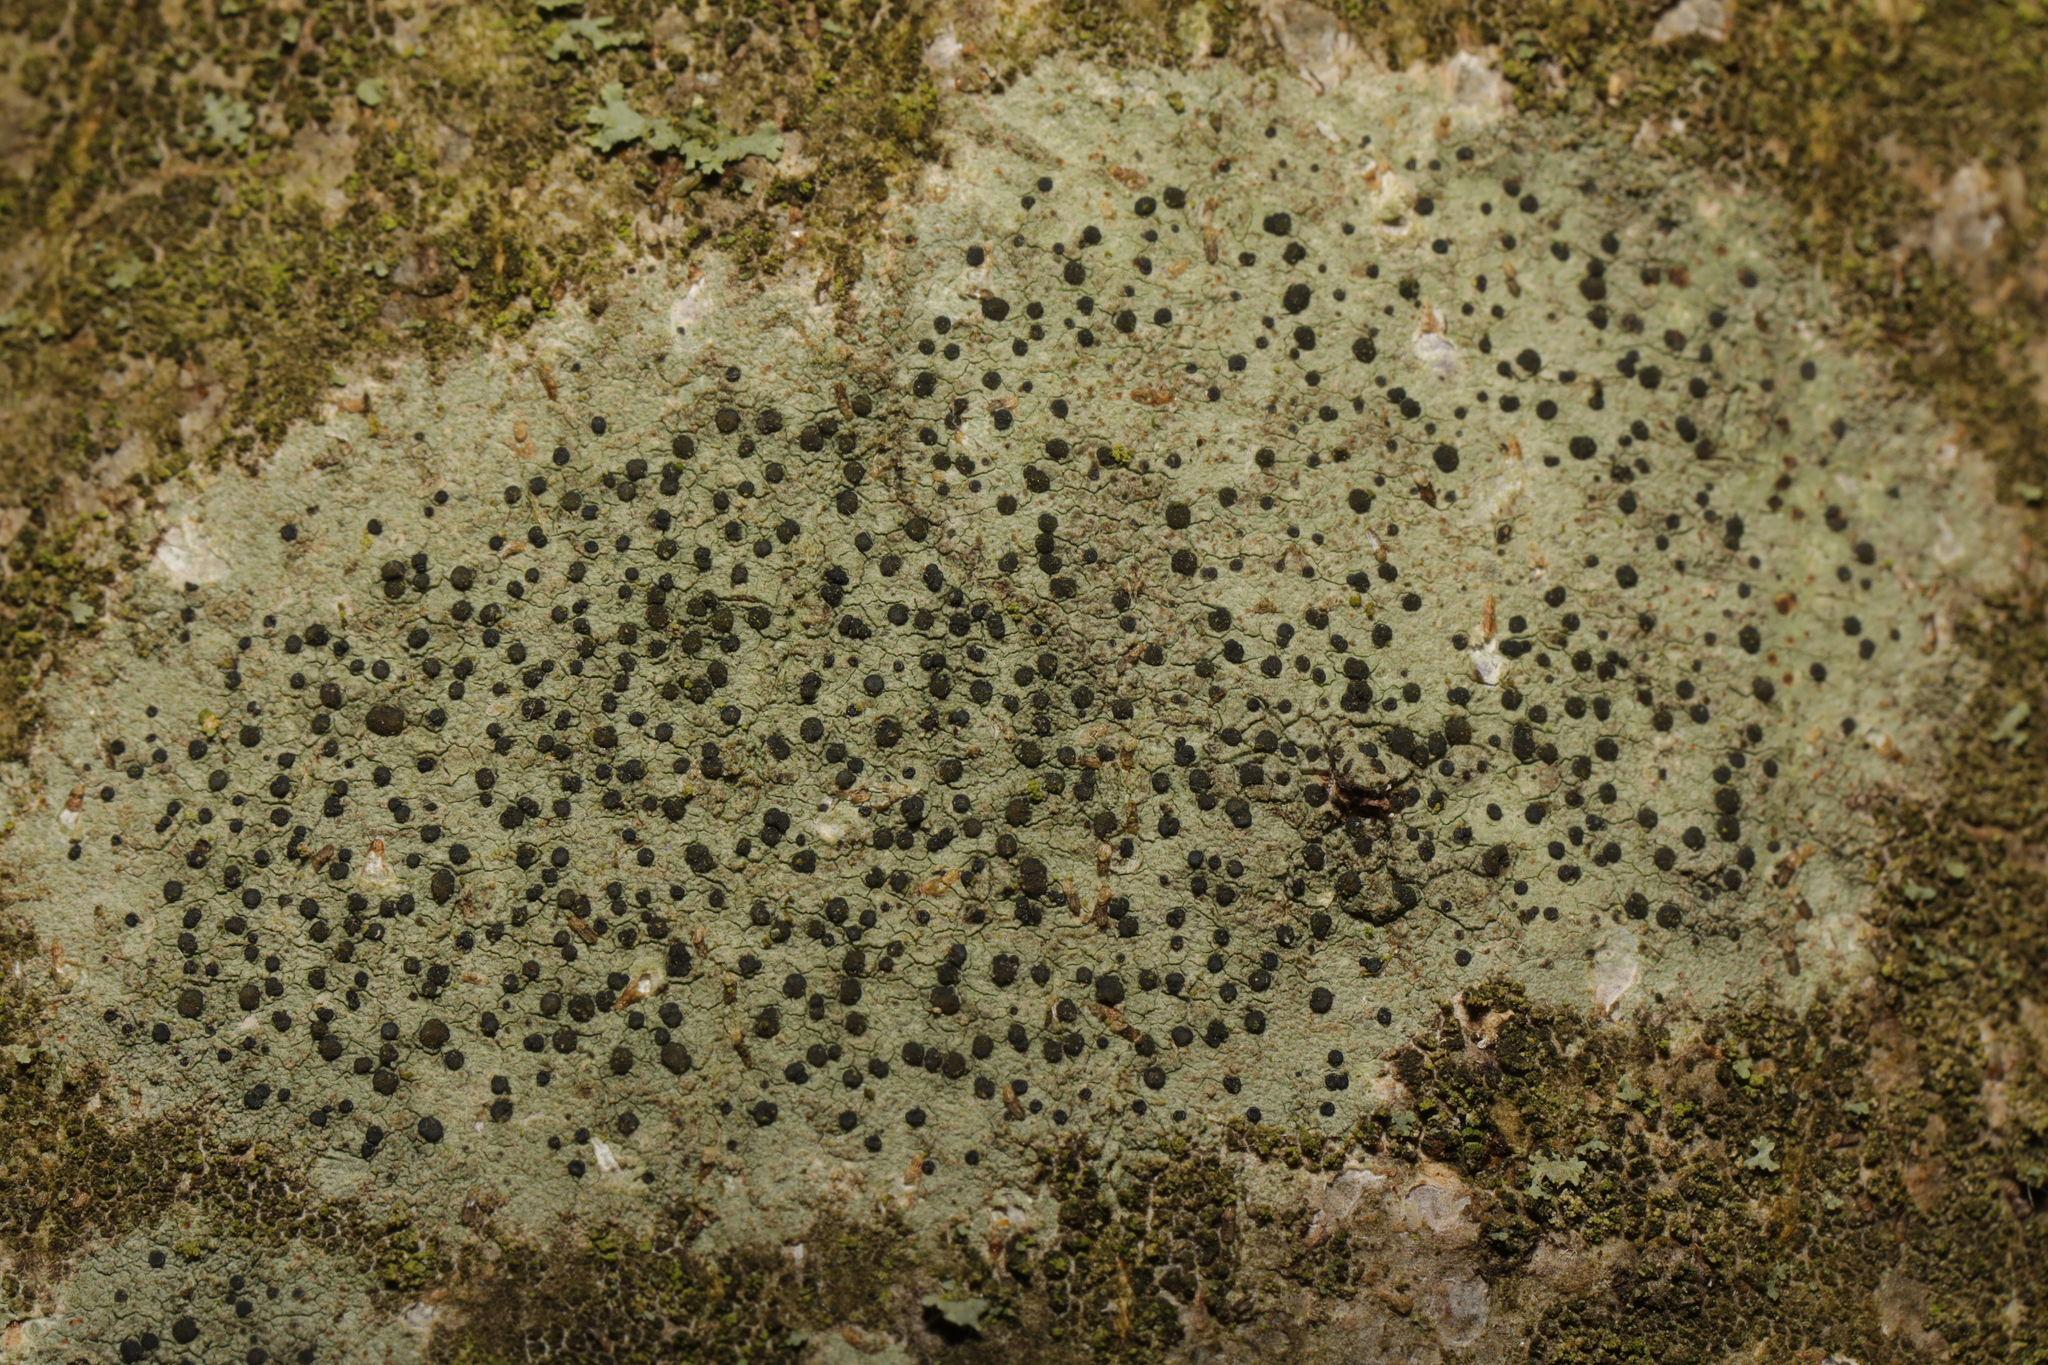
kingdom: Fungi
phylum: Ascomycota
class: Lecanoromycetes
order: Lecanorales
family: Lecanoraceae
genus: Lecidella
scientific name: Lecidella elaeochroma
